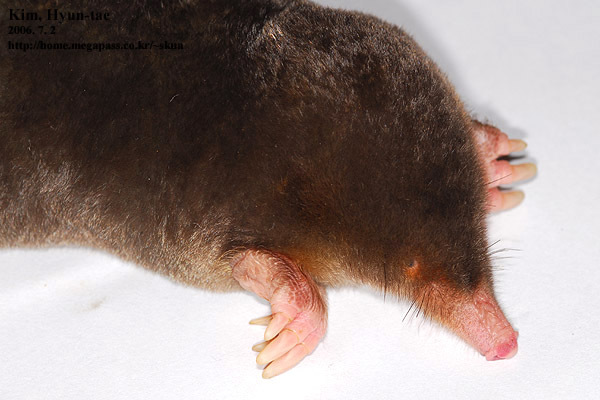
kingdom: Animalia
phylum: Chordata
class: Mammalia
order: Soricomorpha
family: Talpidae
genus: Mogera
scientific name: Mogera wogura
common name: Japanese mole
